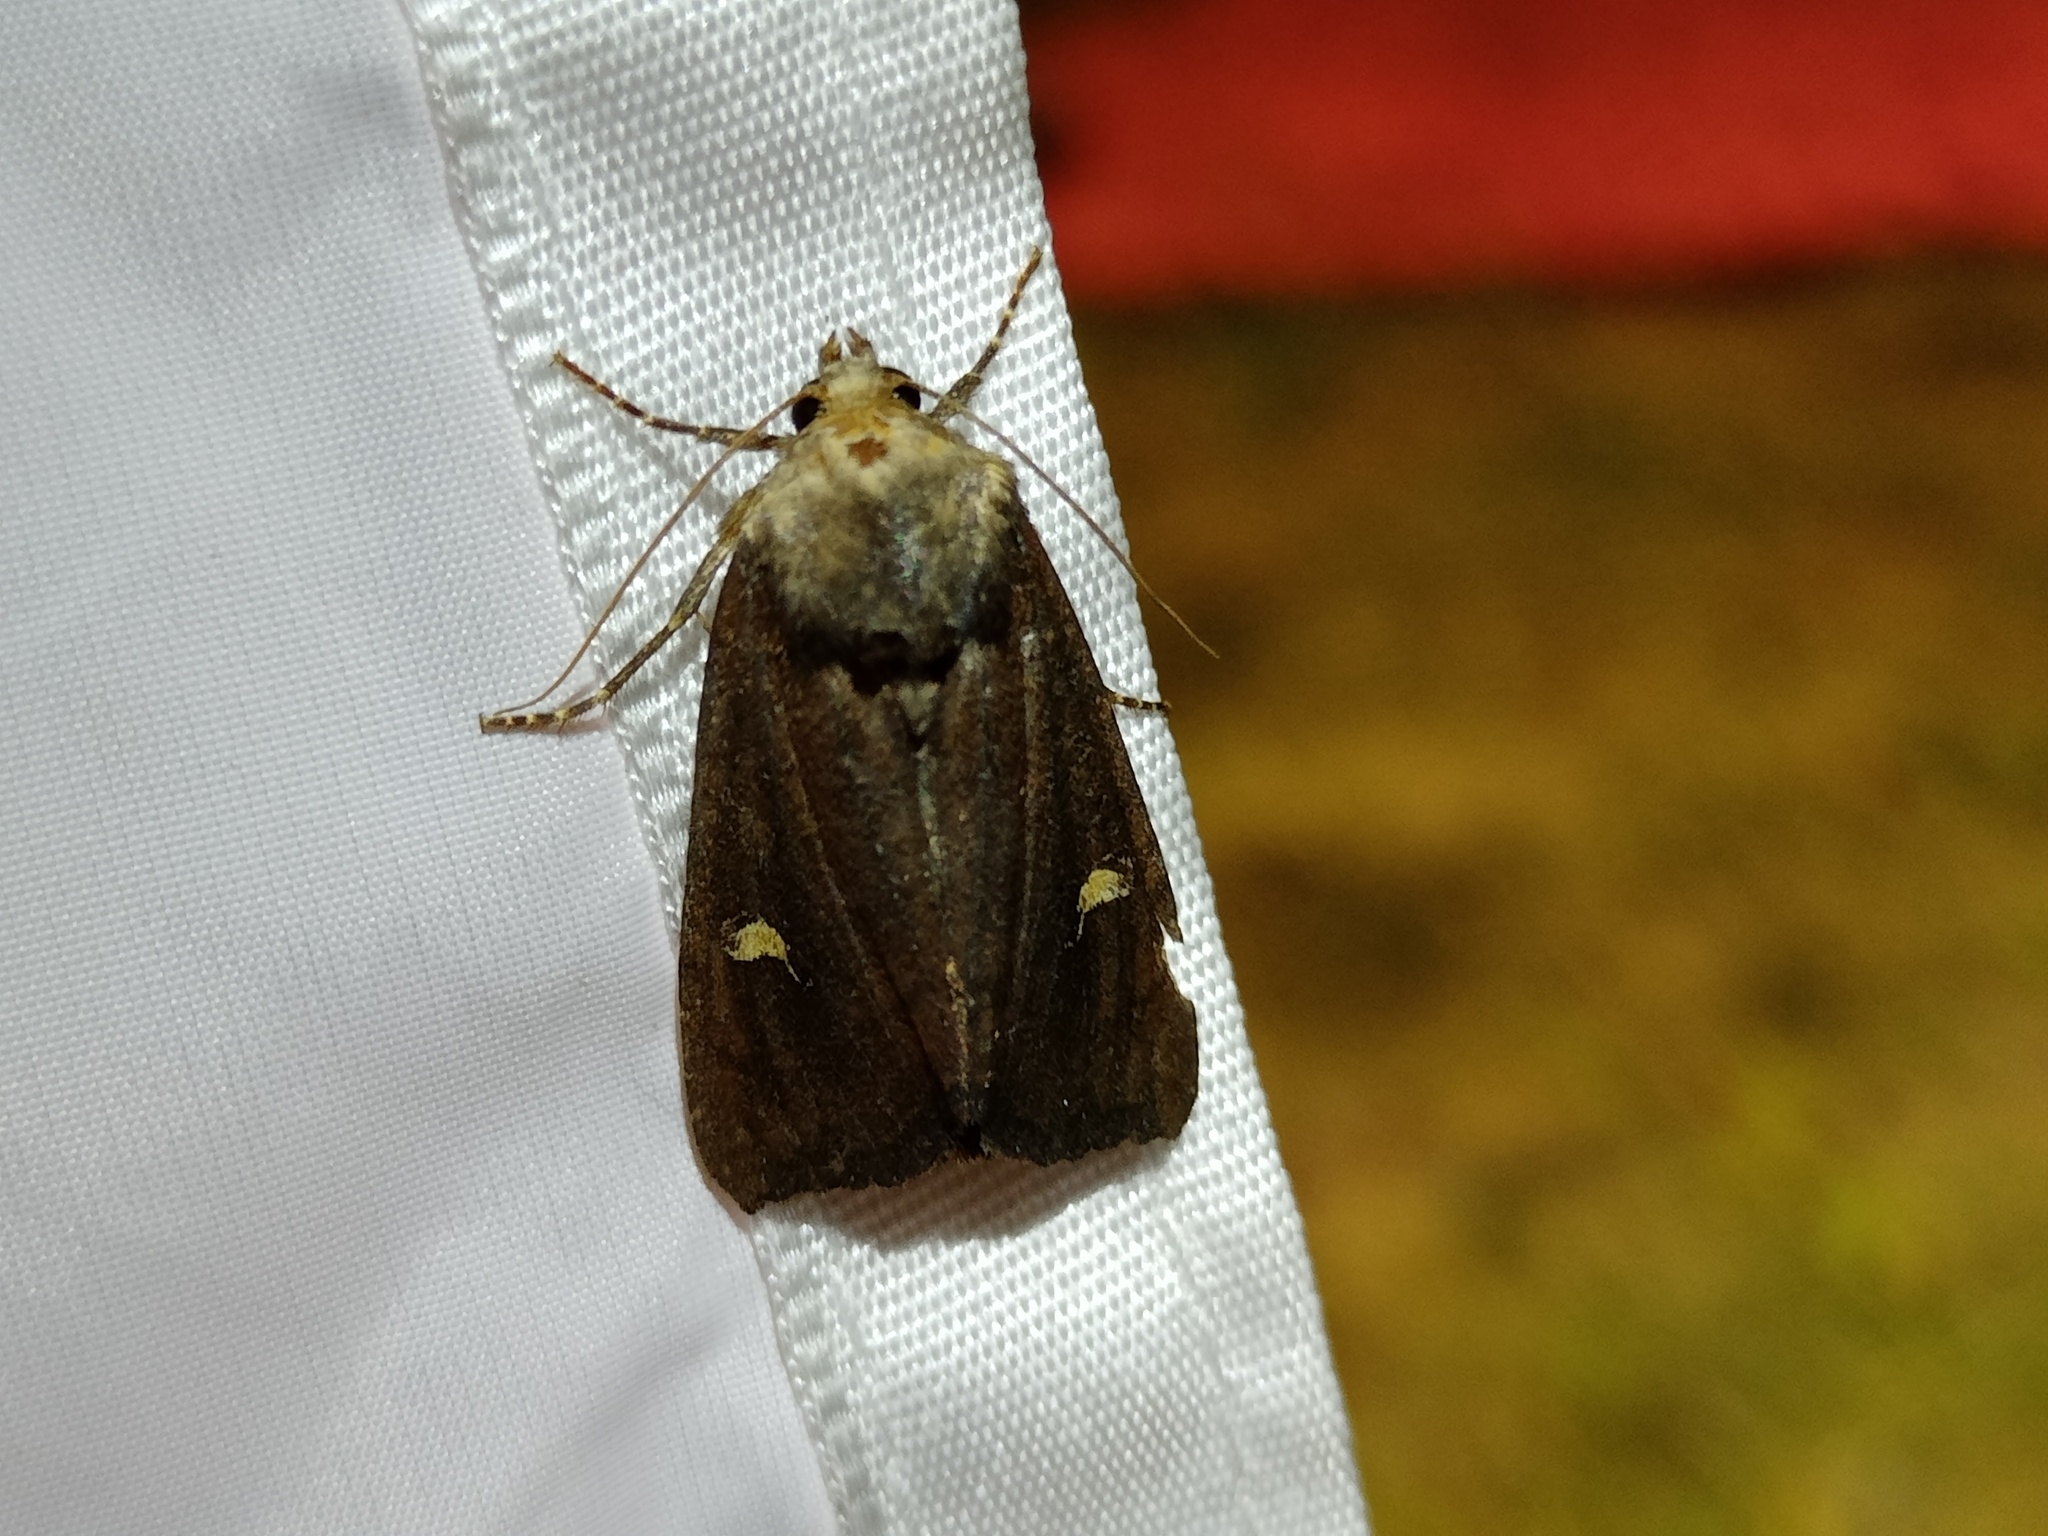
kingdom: Animalia
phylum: Arthropoda
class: Insecta
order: Lepidoptera
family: Noctuidae
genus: Helotropha
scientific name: Helotropha leucostigma
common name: The crescent
